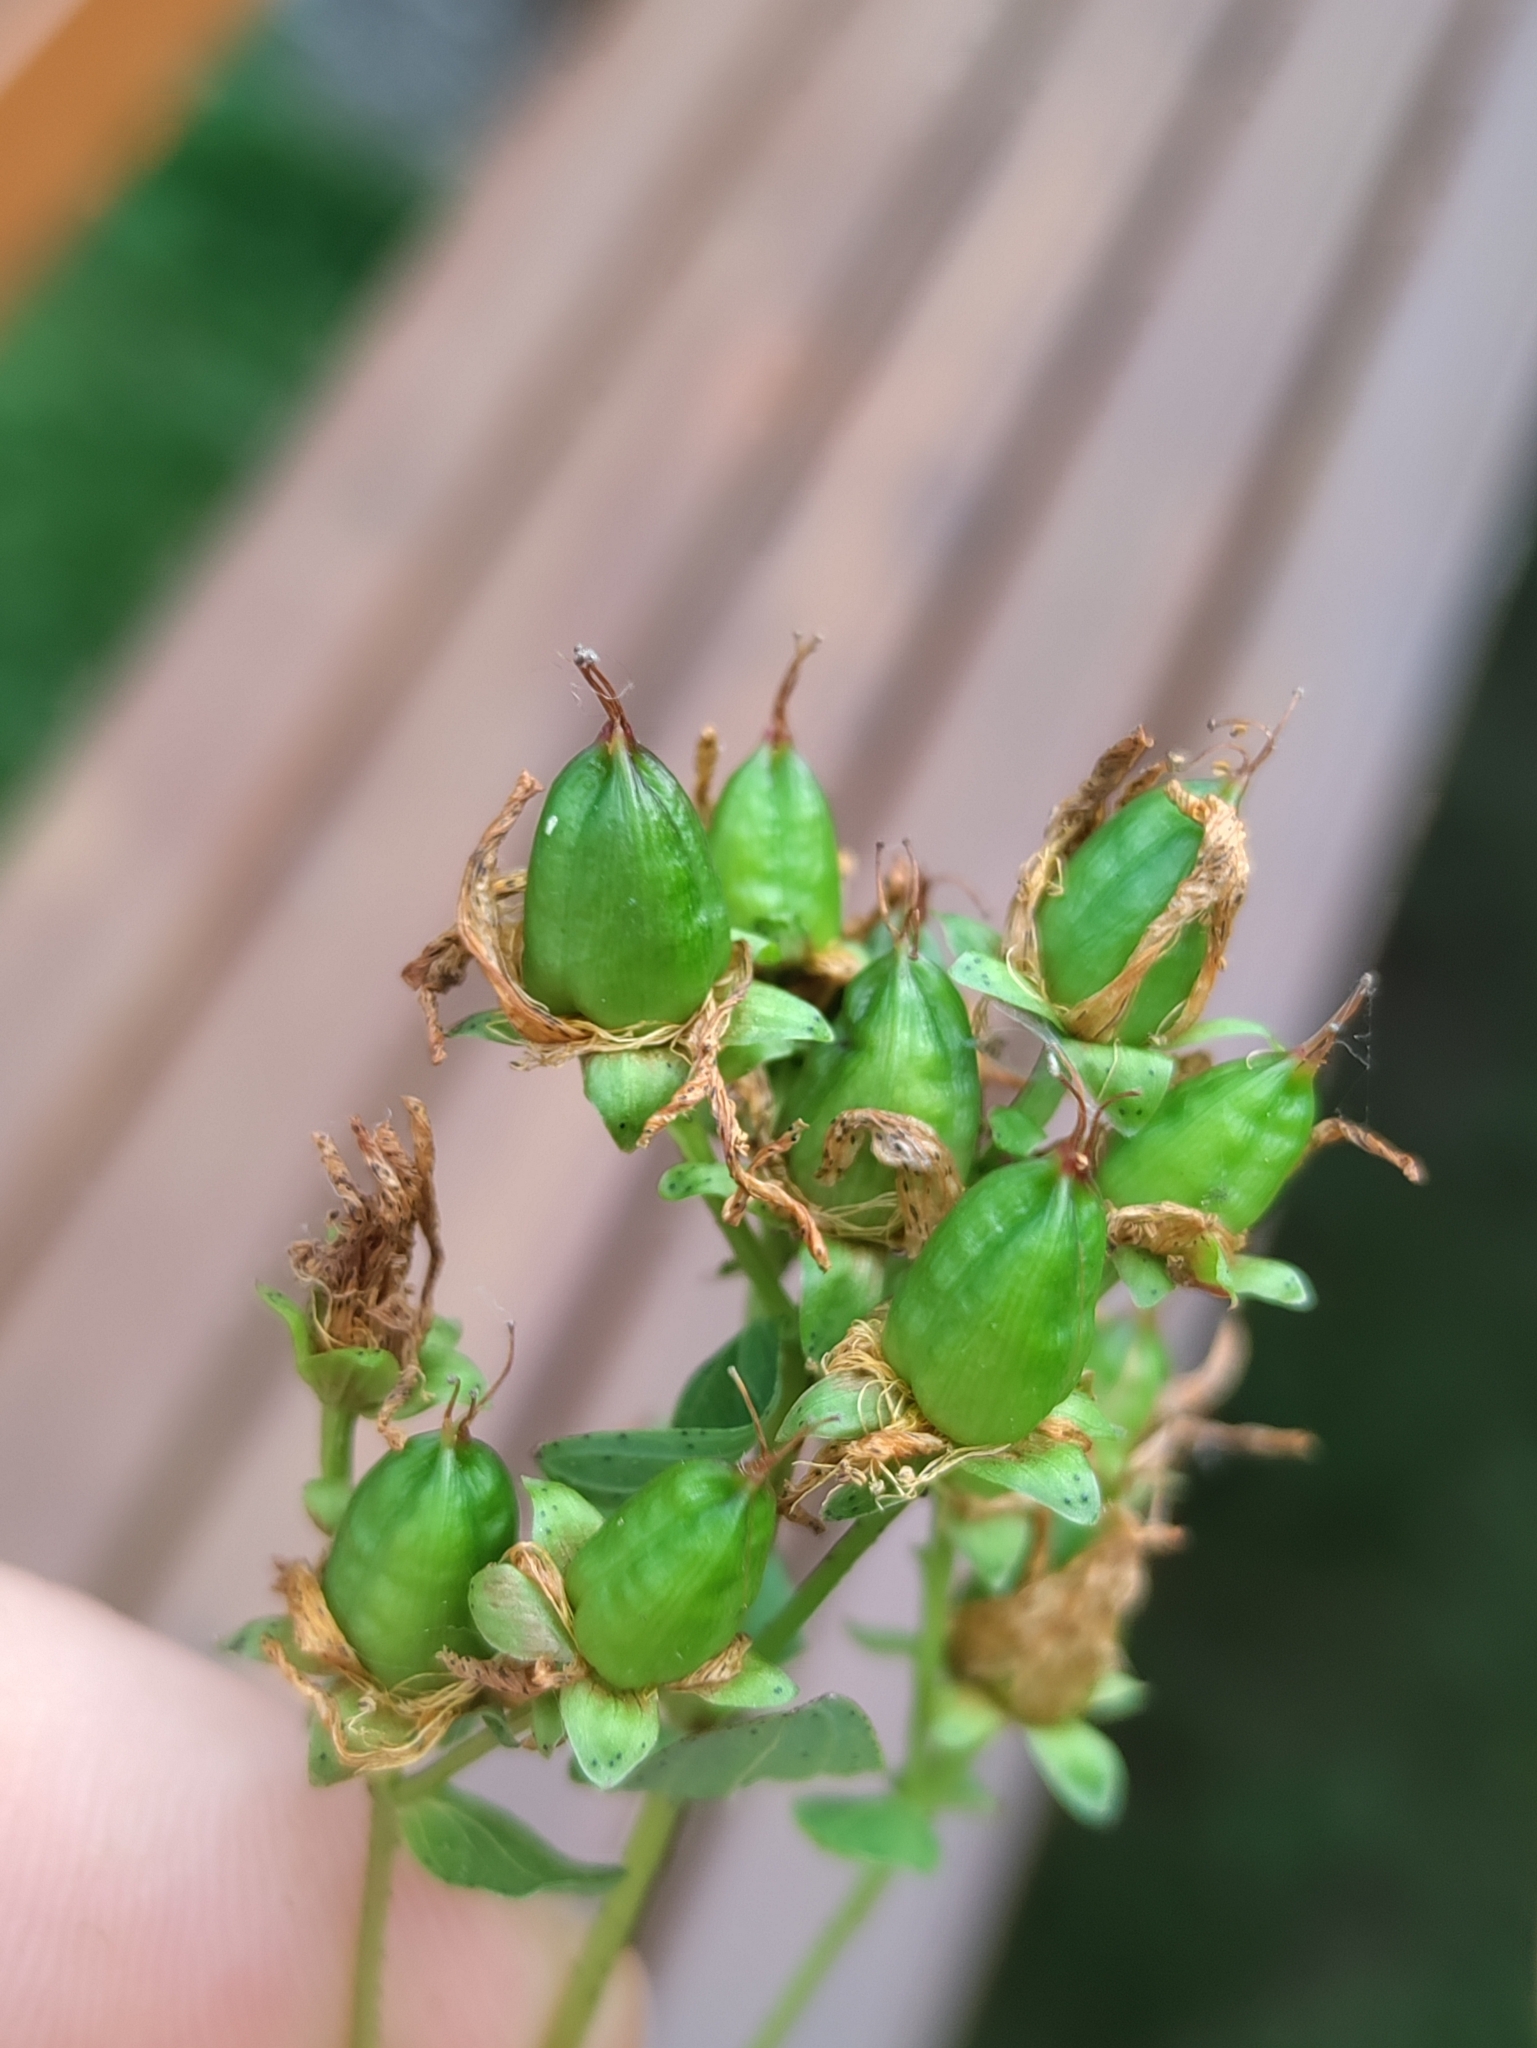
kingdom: Plantae
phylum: Tracheophyta
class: Magnoliopsida
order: Malpighiales
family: Hypericaceae
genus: Hypericum
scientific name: Hypericum maculatum
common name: Imperforate st. john's-wort
